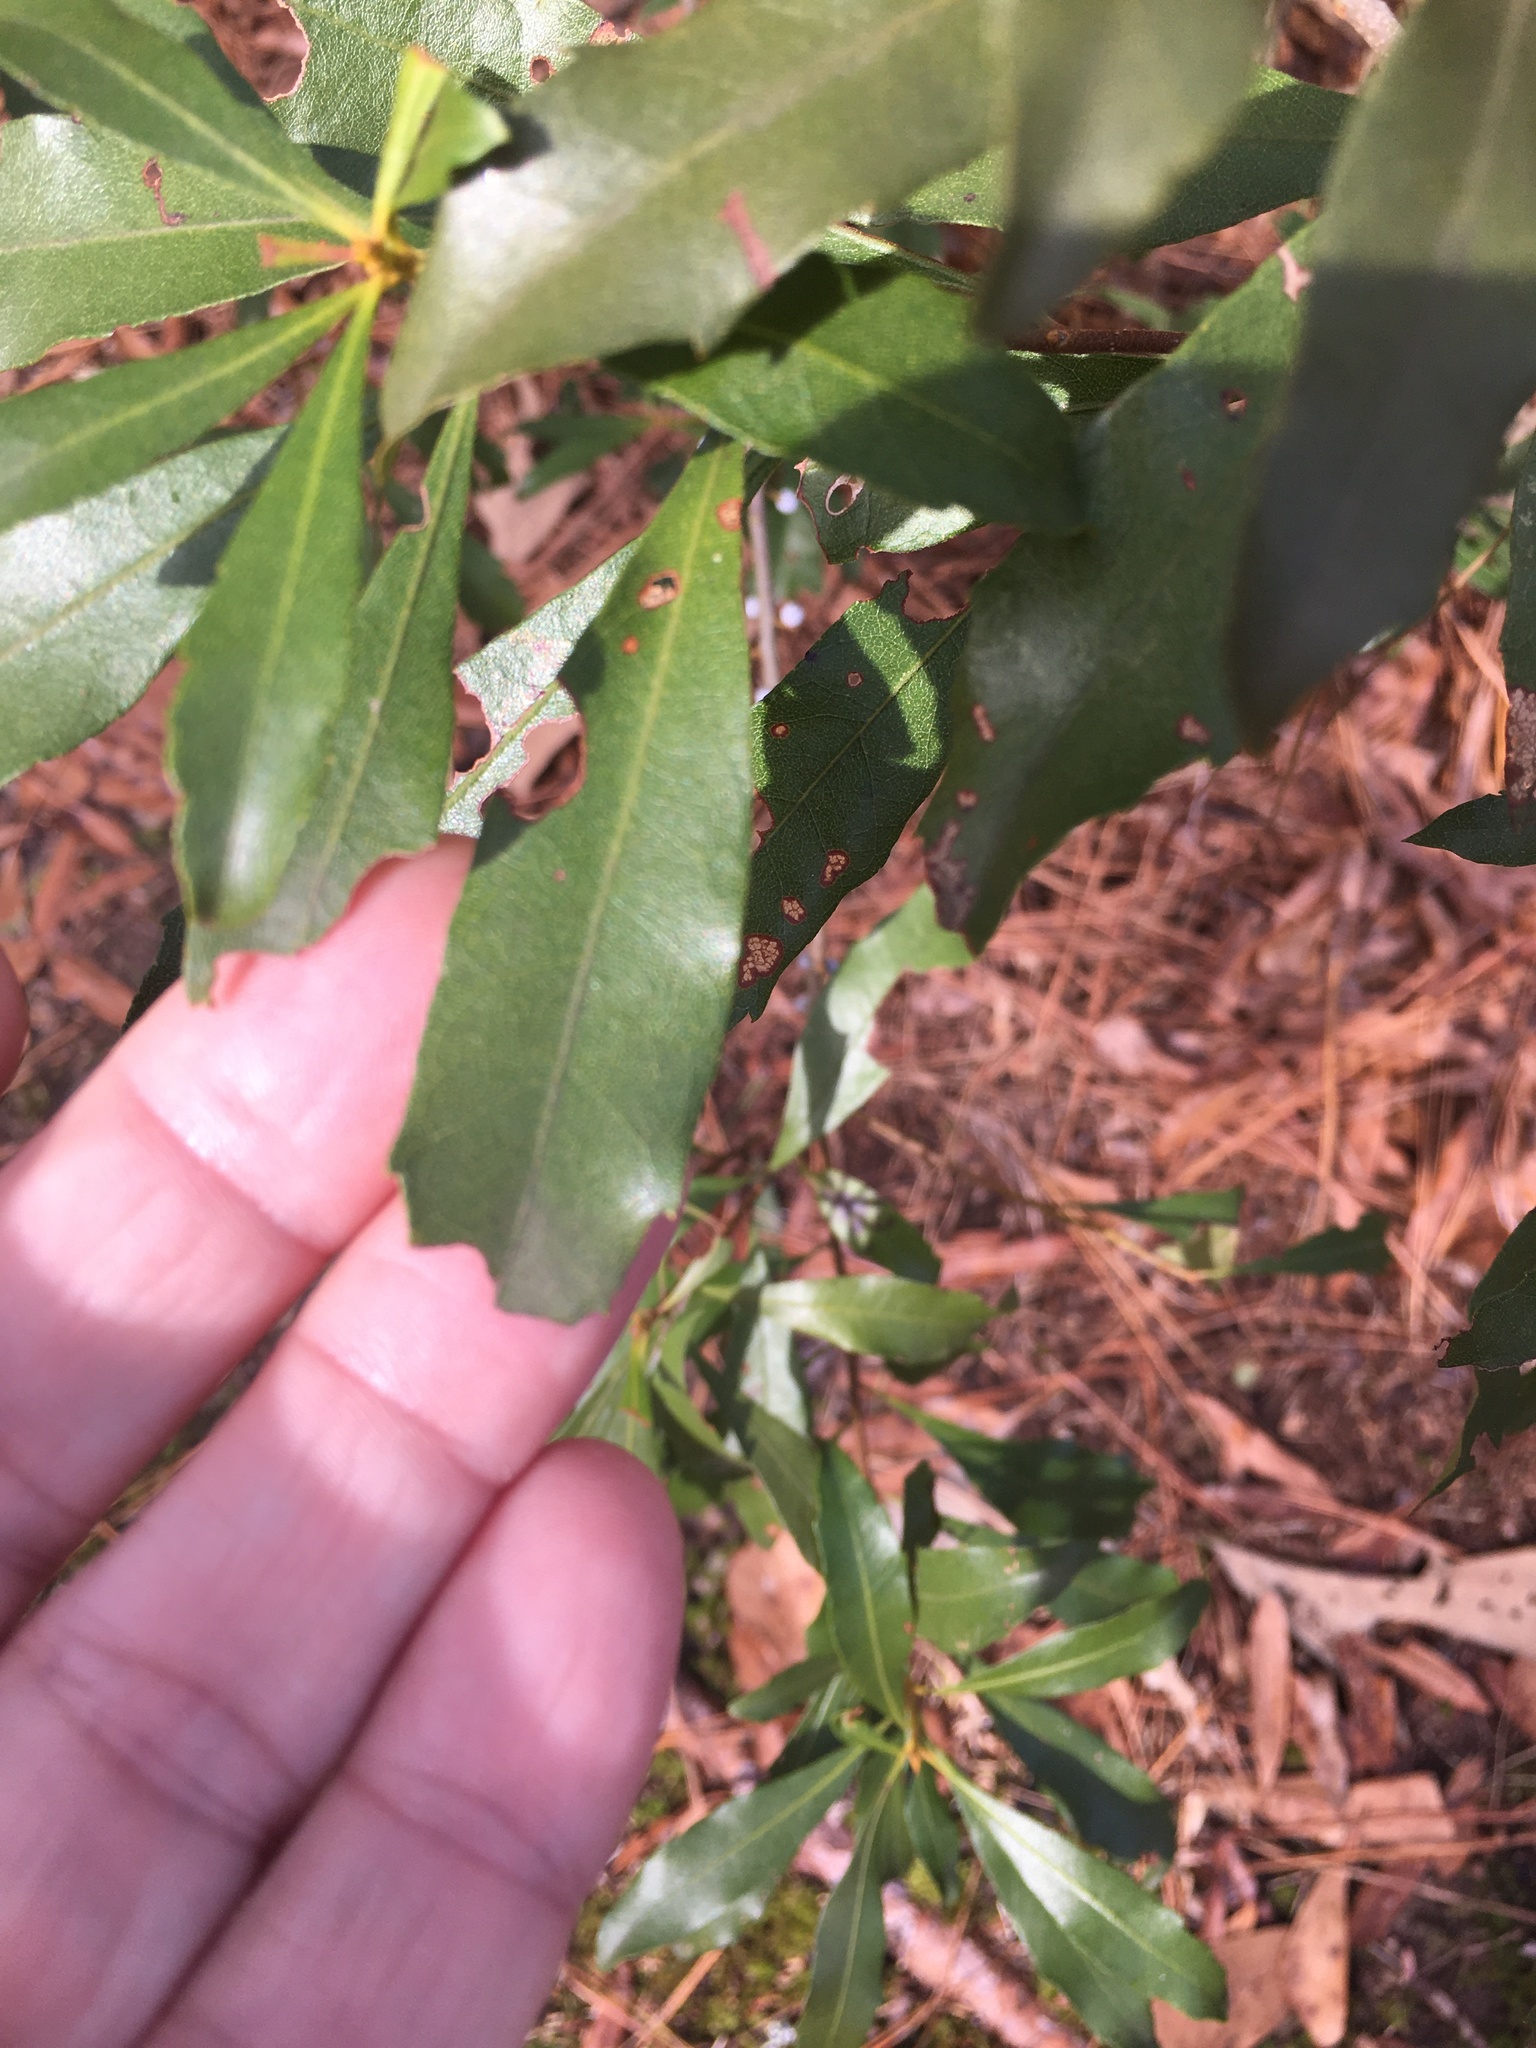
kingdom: Plantae
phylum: Tracheophyta
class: Magnoliopsida
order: Fagales
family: Myricaceae
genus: Morella
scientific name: Morella cerifera
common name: Wax myrtle
